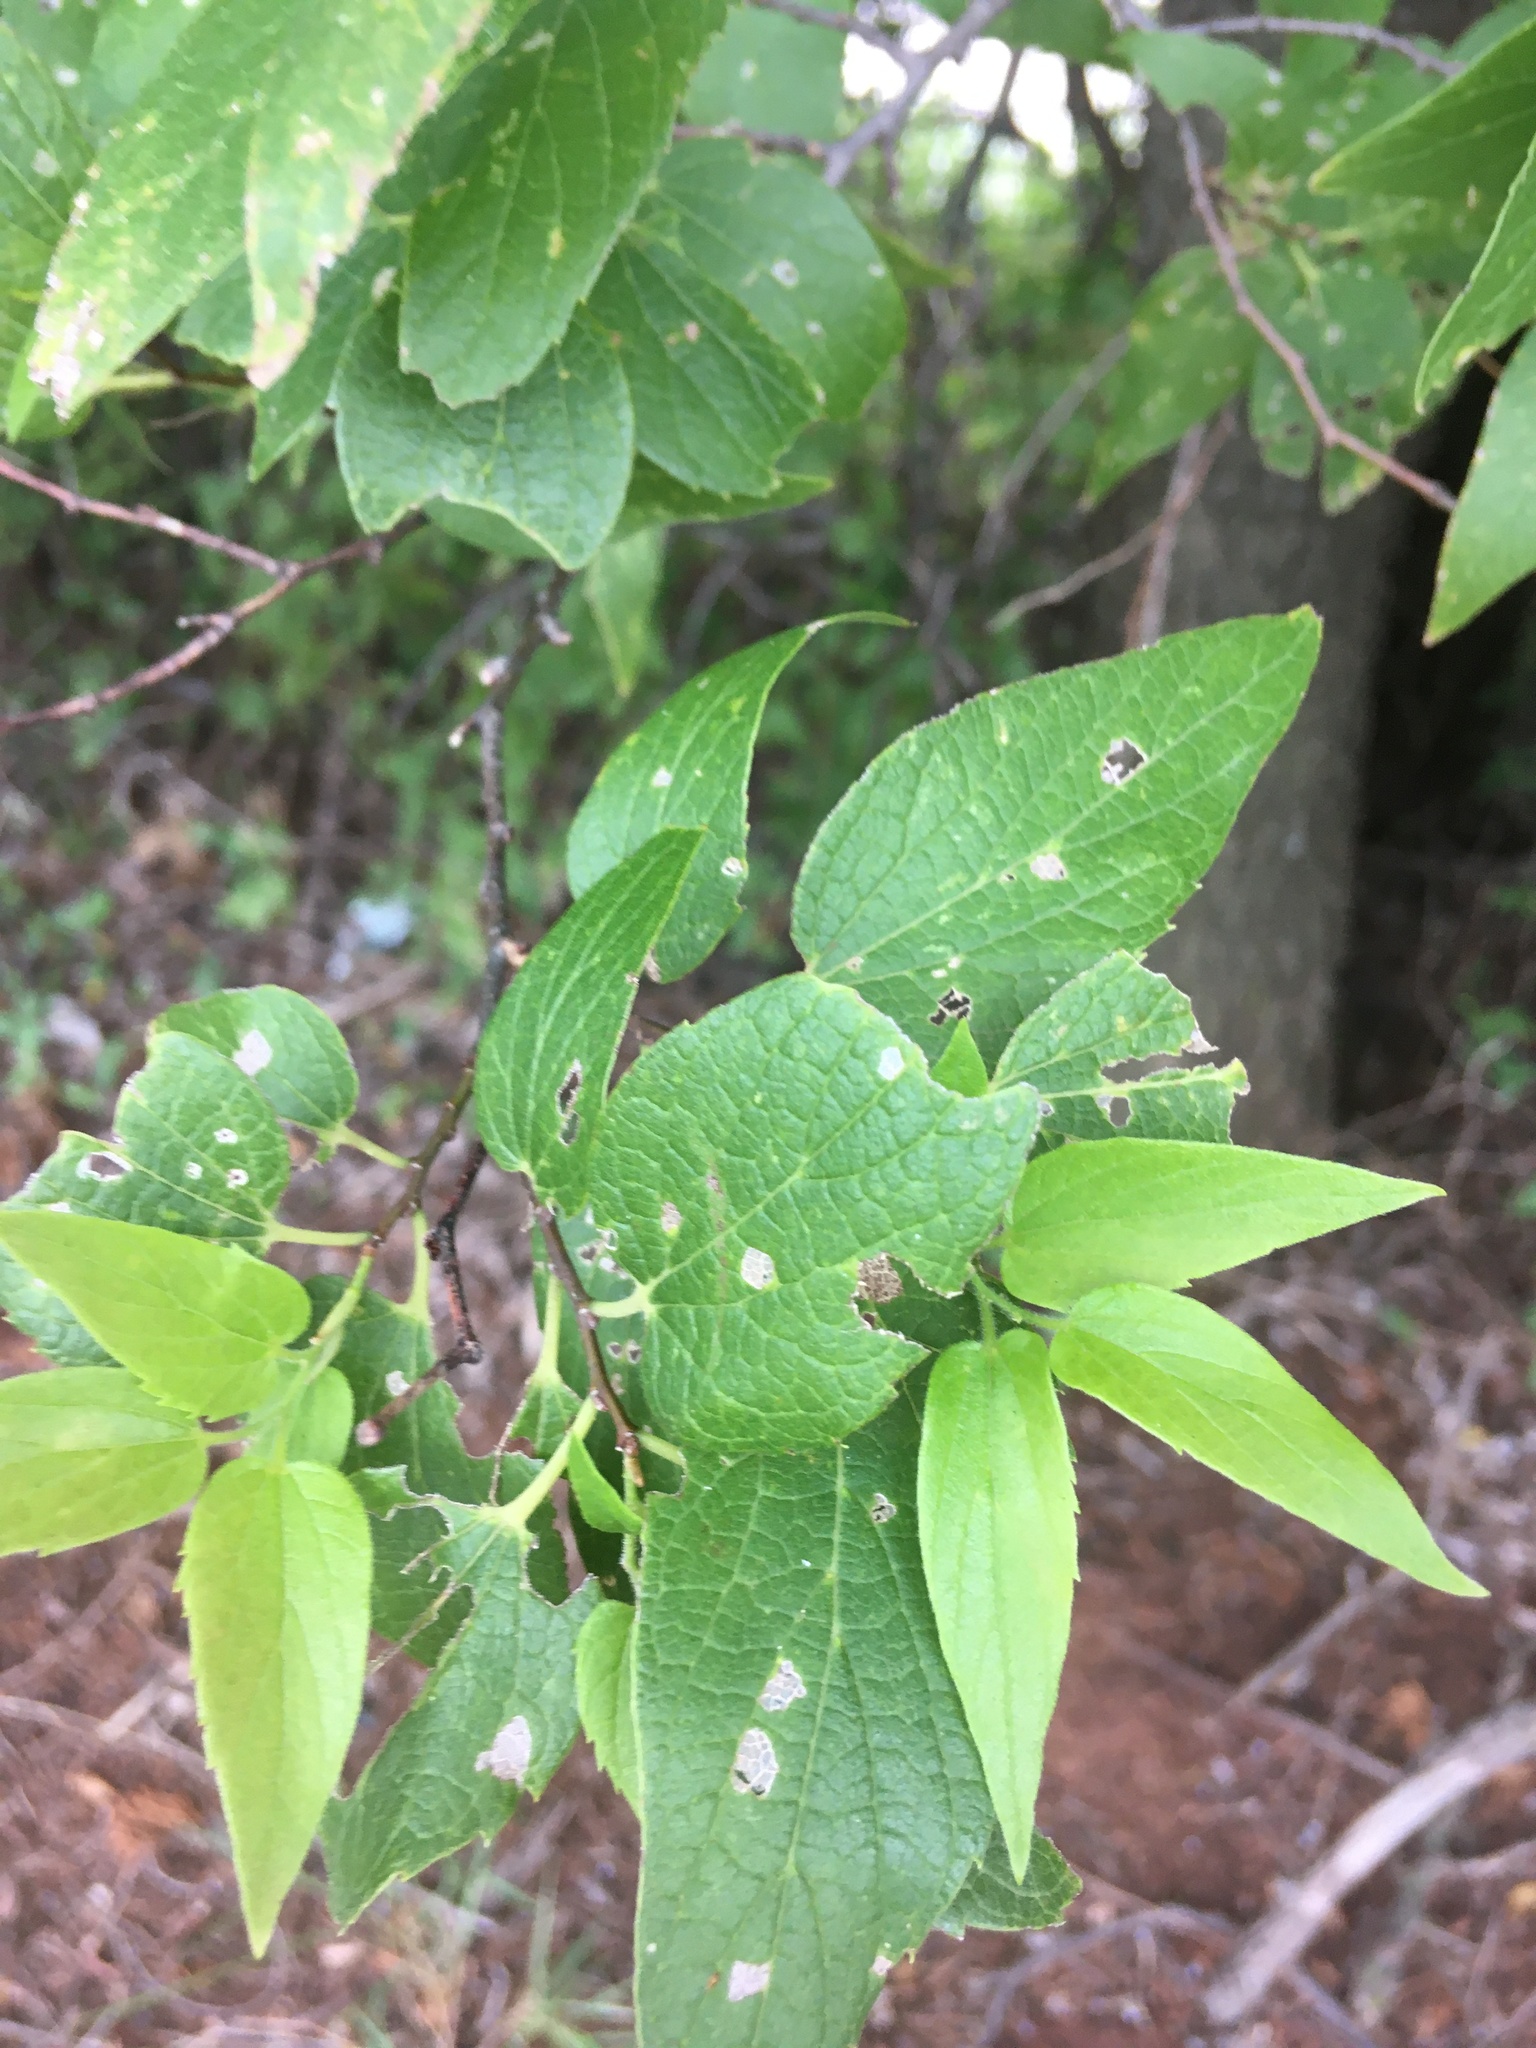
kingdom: Plantae
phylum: Tracheophyta
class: Magnoliopsida
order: Rosales
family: Cannabaceae
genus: Celtis
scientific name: Celtis laevigata
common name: Sugarberry
